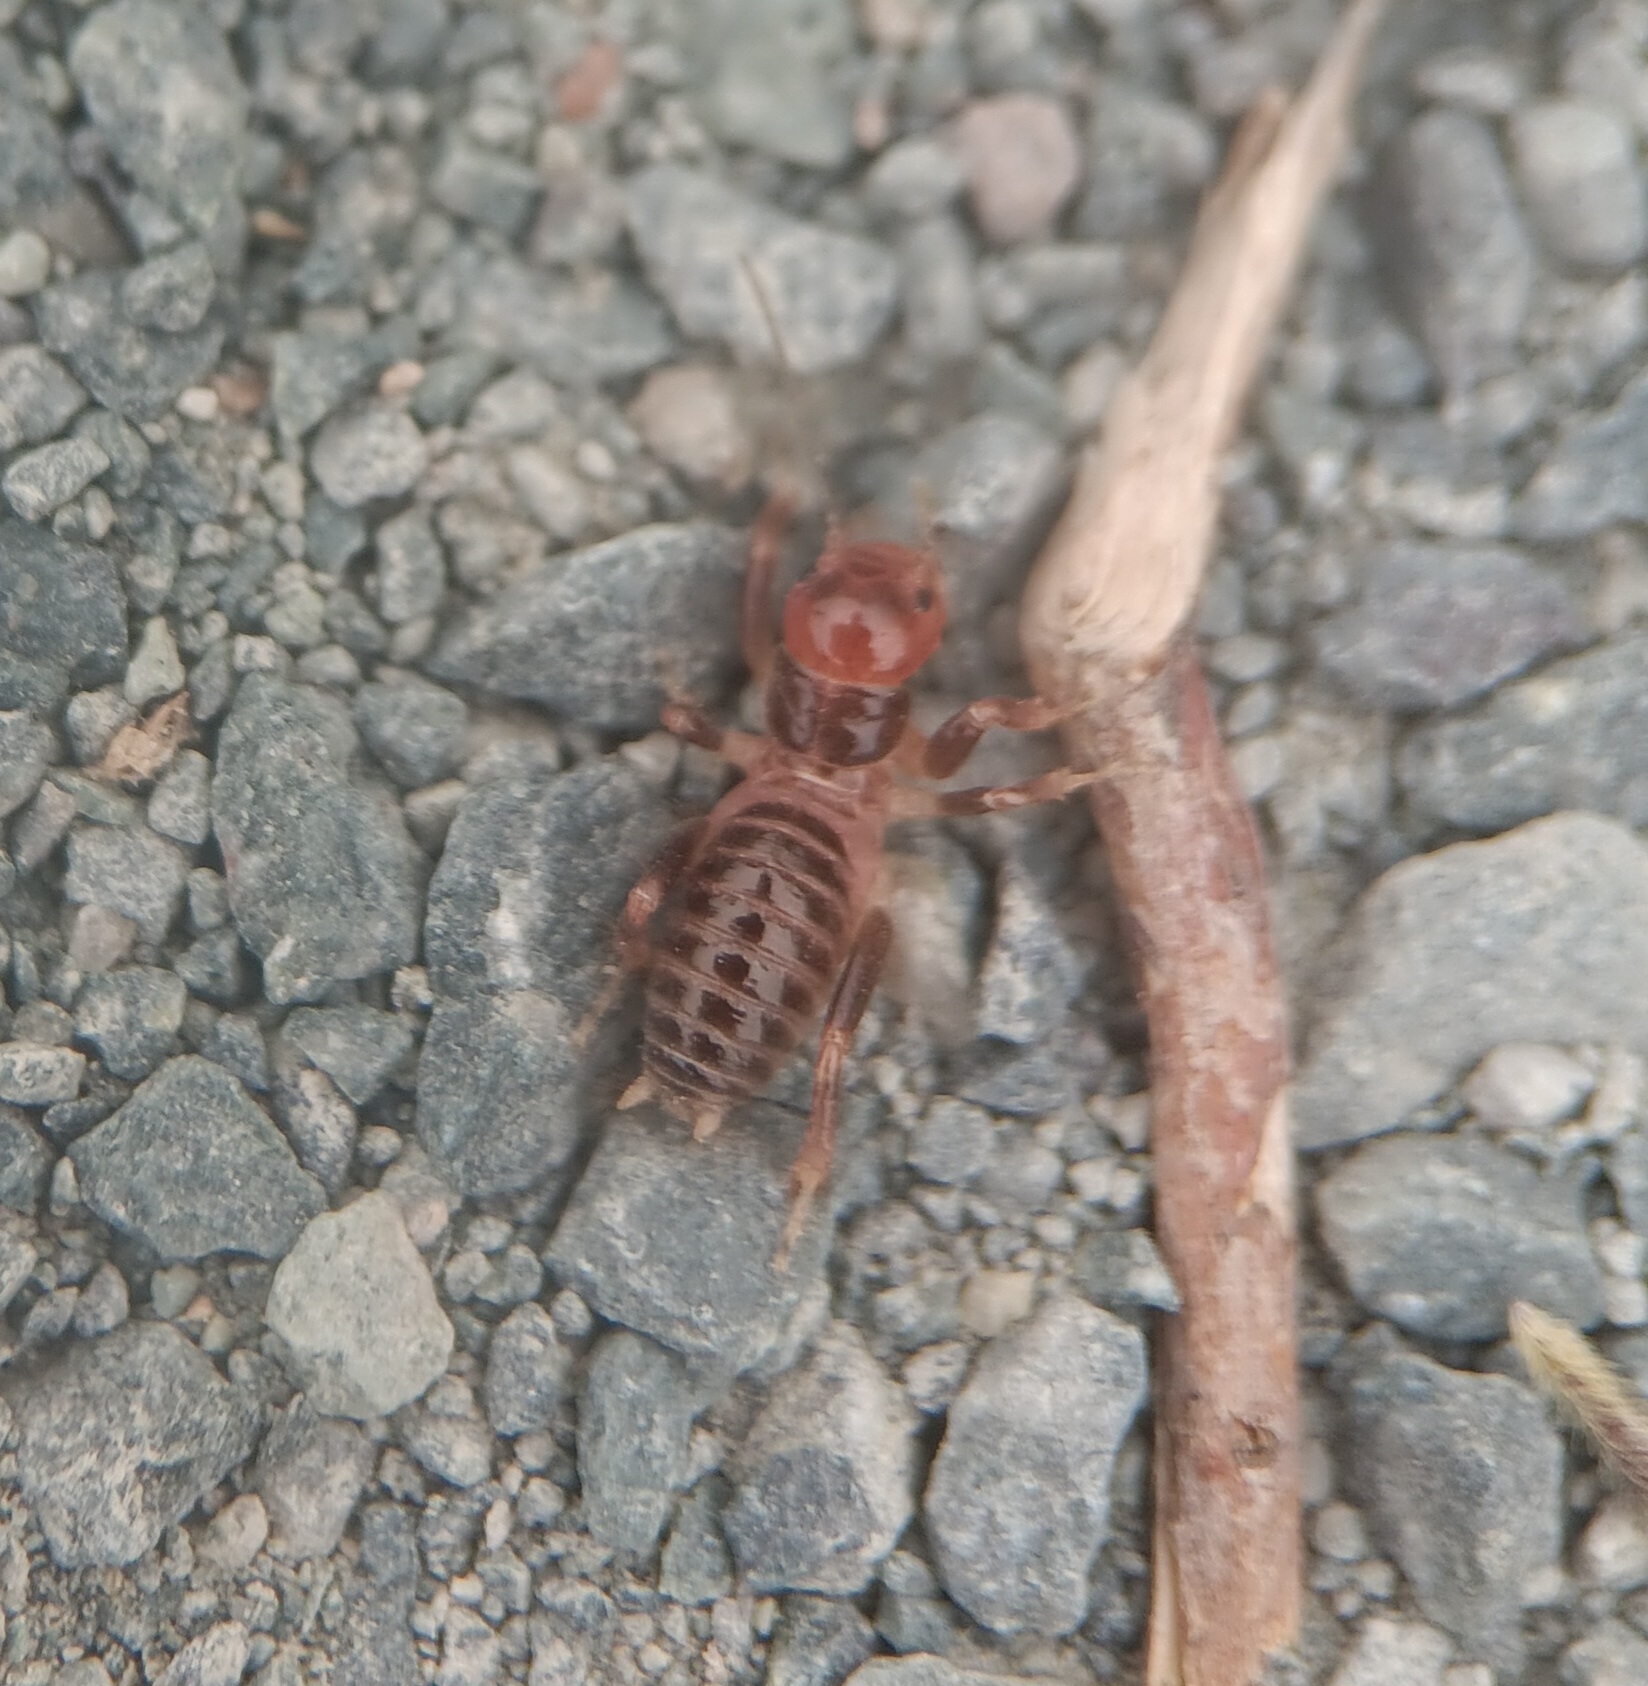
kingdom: Animalia
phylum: Arthropoda
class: Insecta
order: Orthoptera
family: Stenopelmatidae
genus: Ammopelmatus
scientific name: Ammopelmatus
